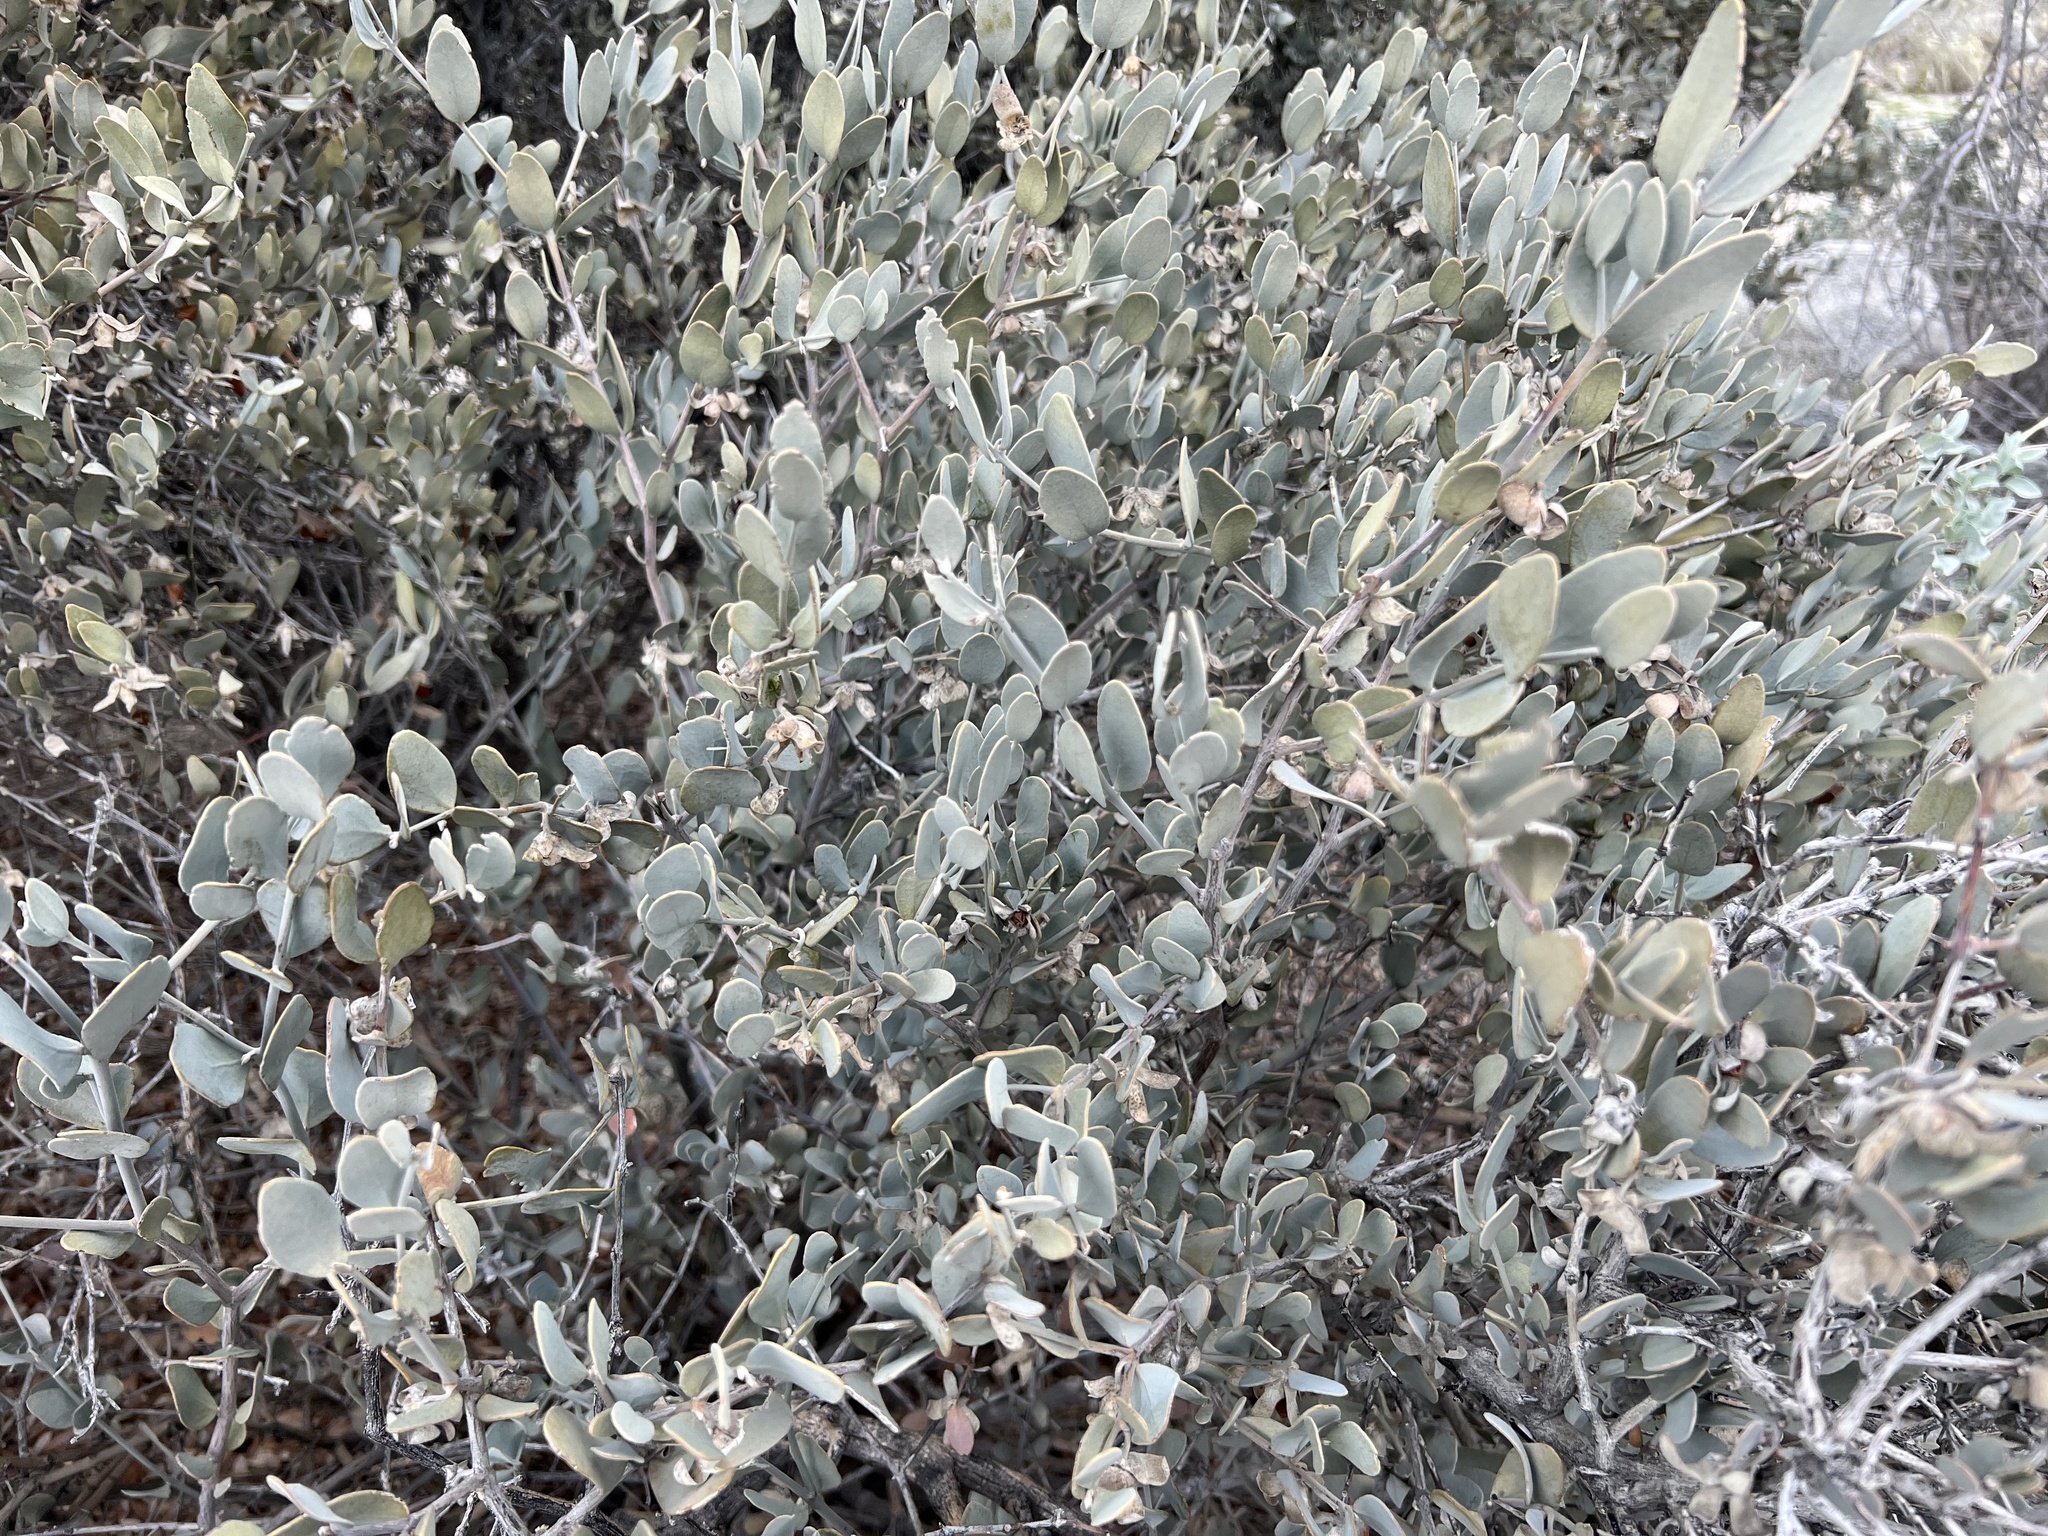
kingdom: Plantae
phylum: Tracheophyta
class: Magnoliopsida
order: Caryophyllales
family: Simmondsiaceae
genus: Simmondsia
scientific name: Simmondsia chinensis
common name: Jojoba
